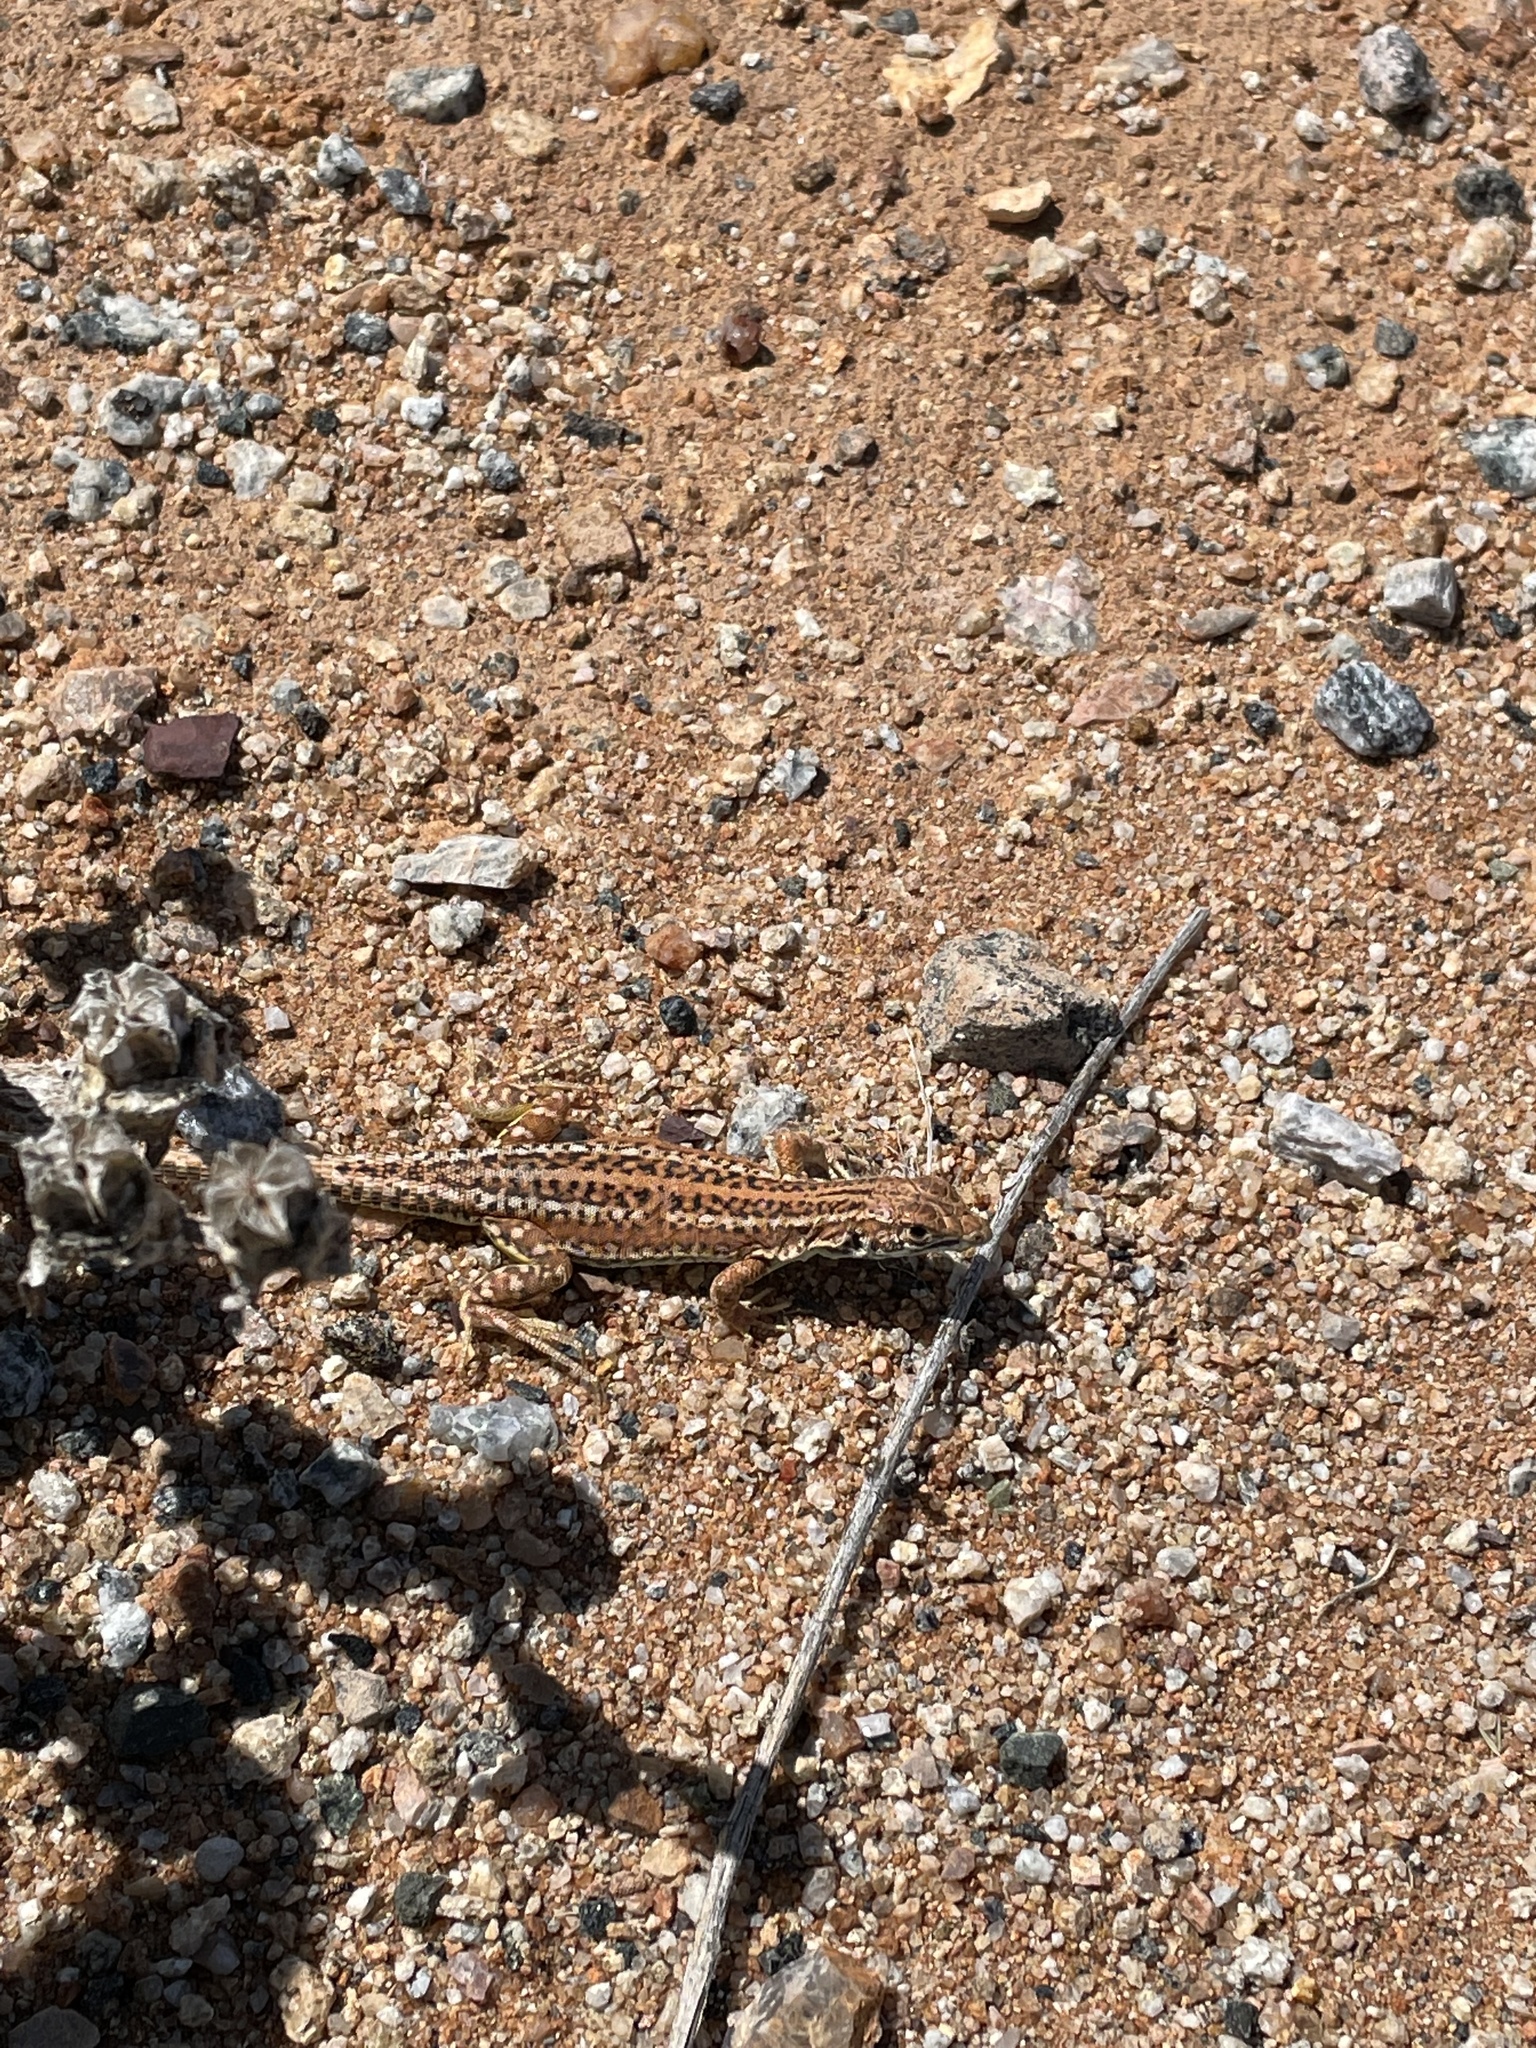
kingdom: Animalia
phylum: Chordata
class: Squamata
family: Lacertidae
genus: Meroles
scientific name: Meroles knoxii
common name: Knox's desert lizard
